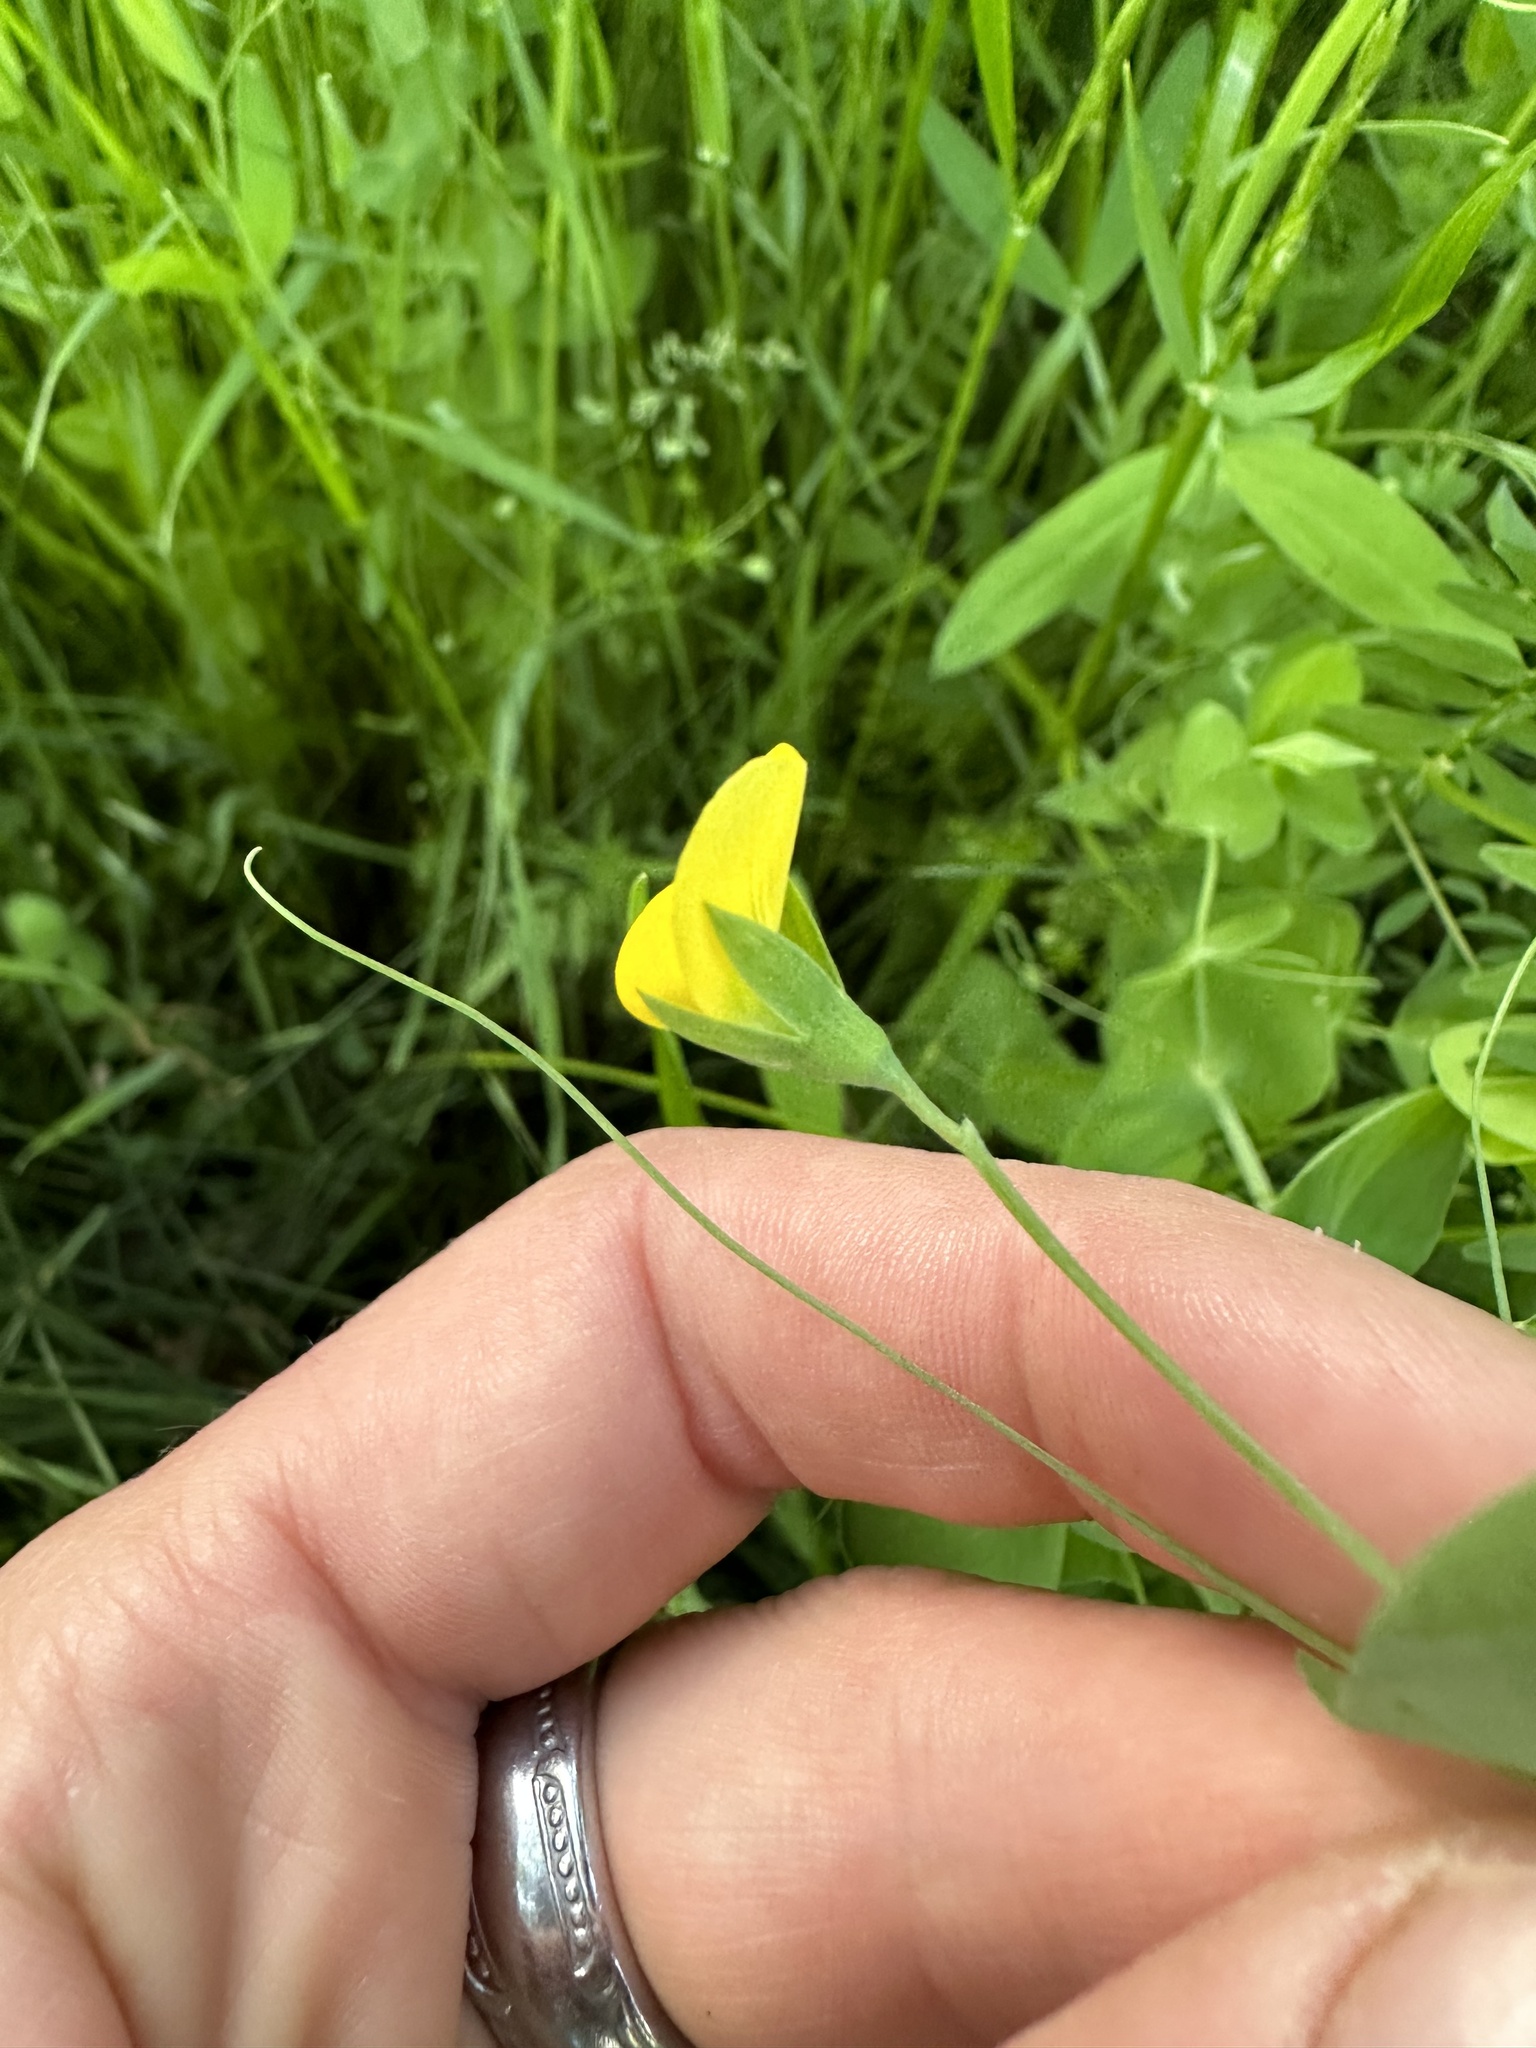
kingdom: Plantae
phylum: Tracheophyta
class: Magnoliopsida
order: Fabales
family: Fabaceae
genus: Lathyrus
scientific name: Lathyrus aphaca
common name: Yellow vetchling
